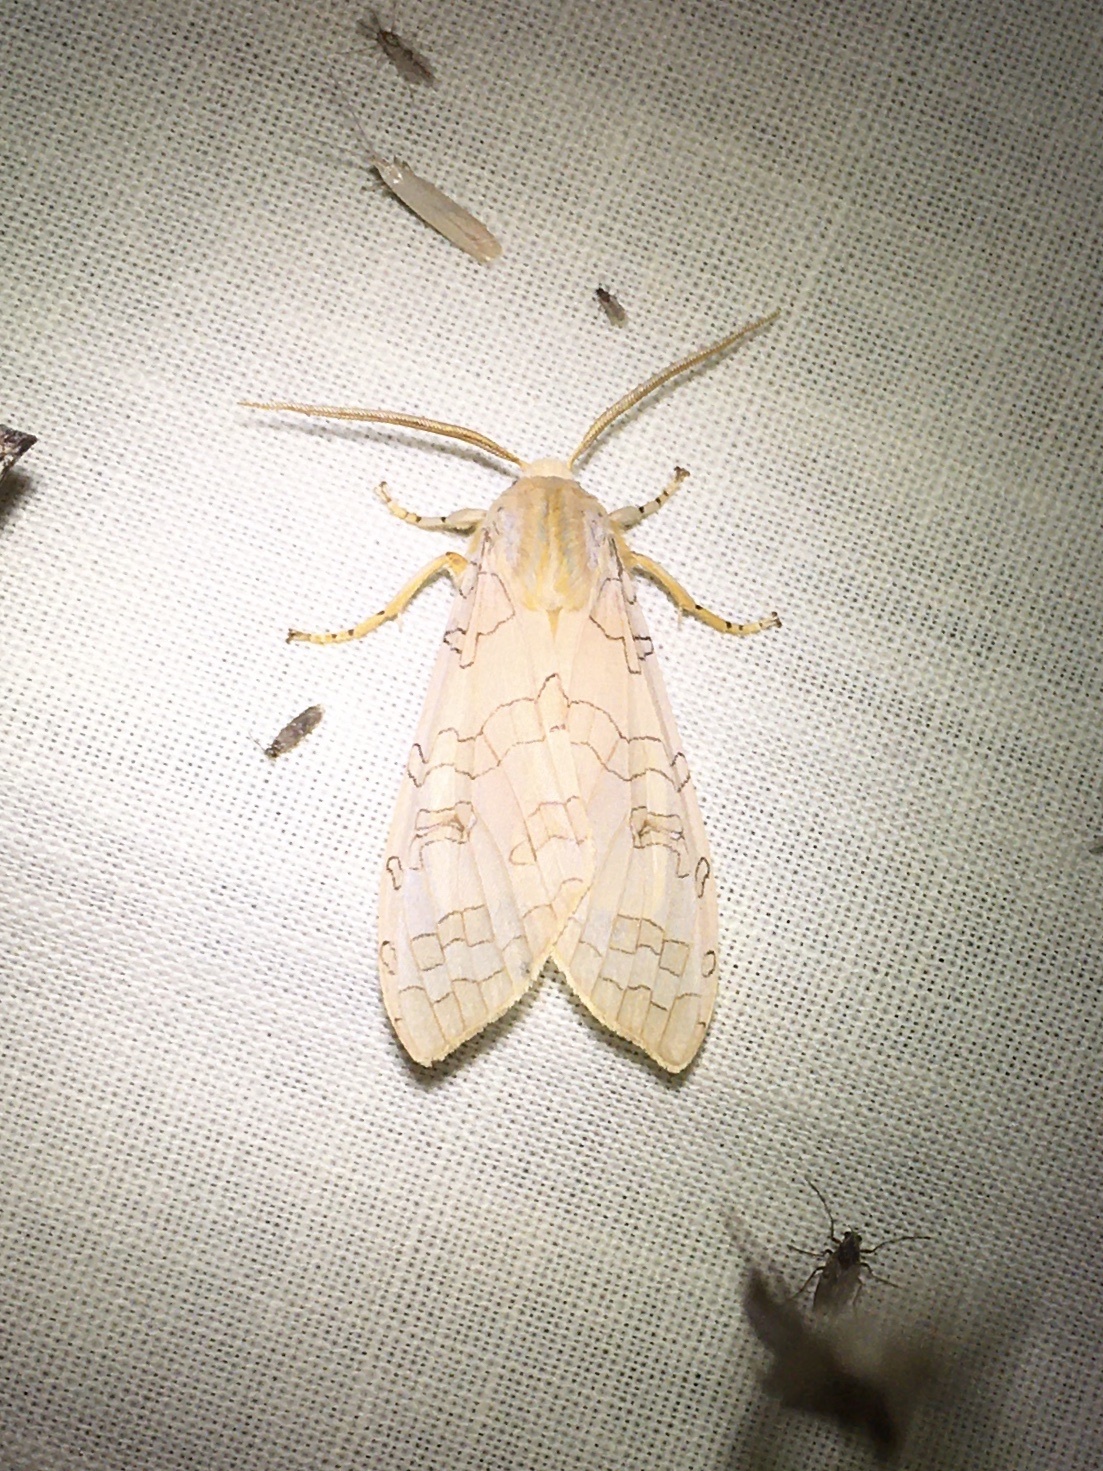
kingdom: Animalia
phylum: Arthropoda
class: Insecta
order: Lepidoptera
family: Erebidae
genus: Halysidota
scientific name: Halysidota tessellaris
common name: Banded tussock moth
